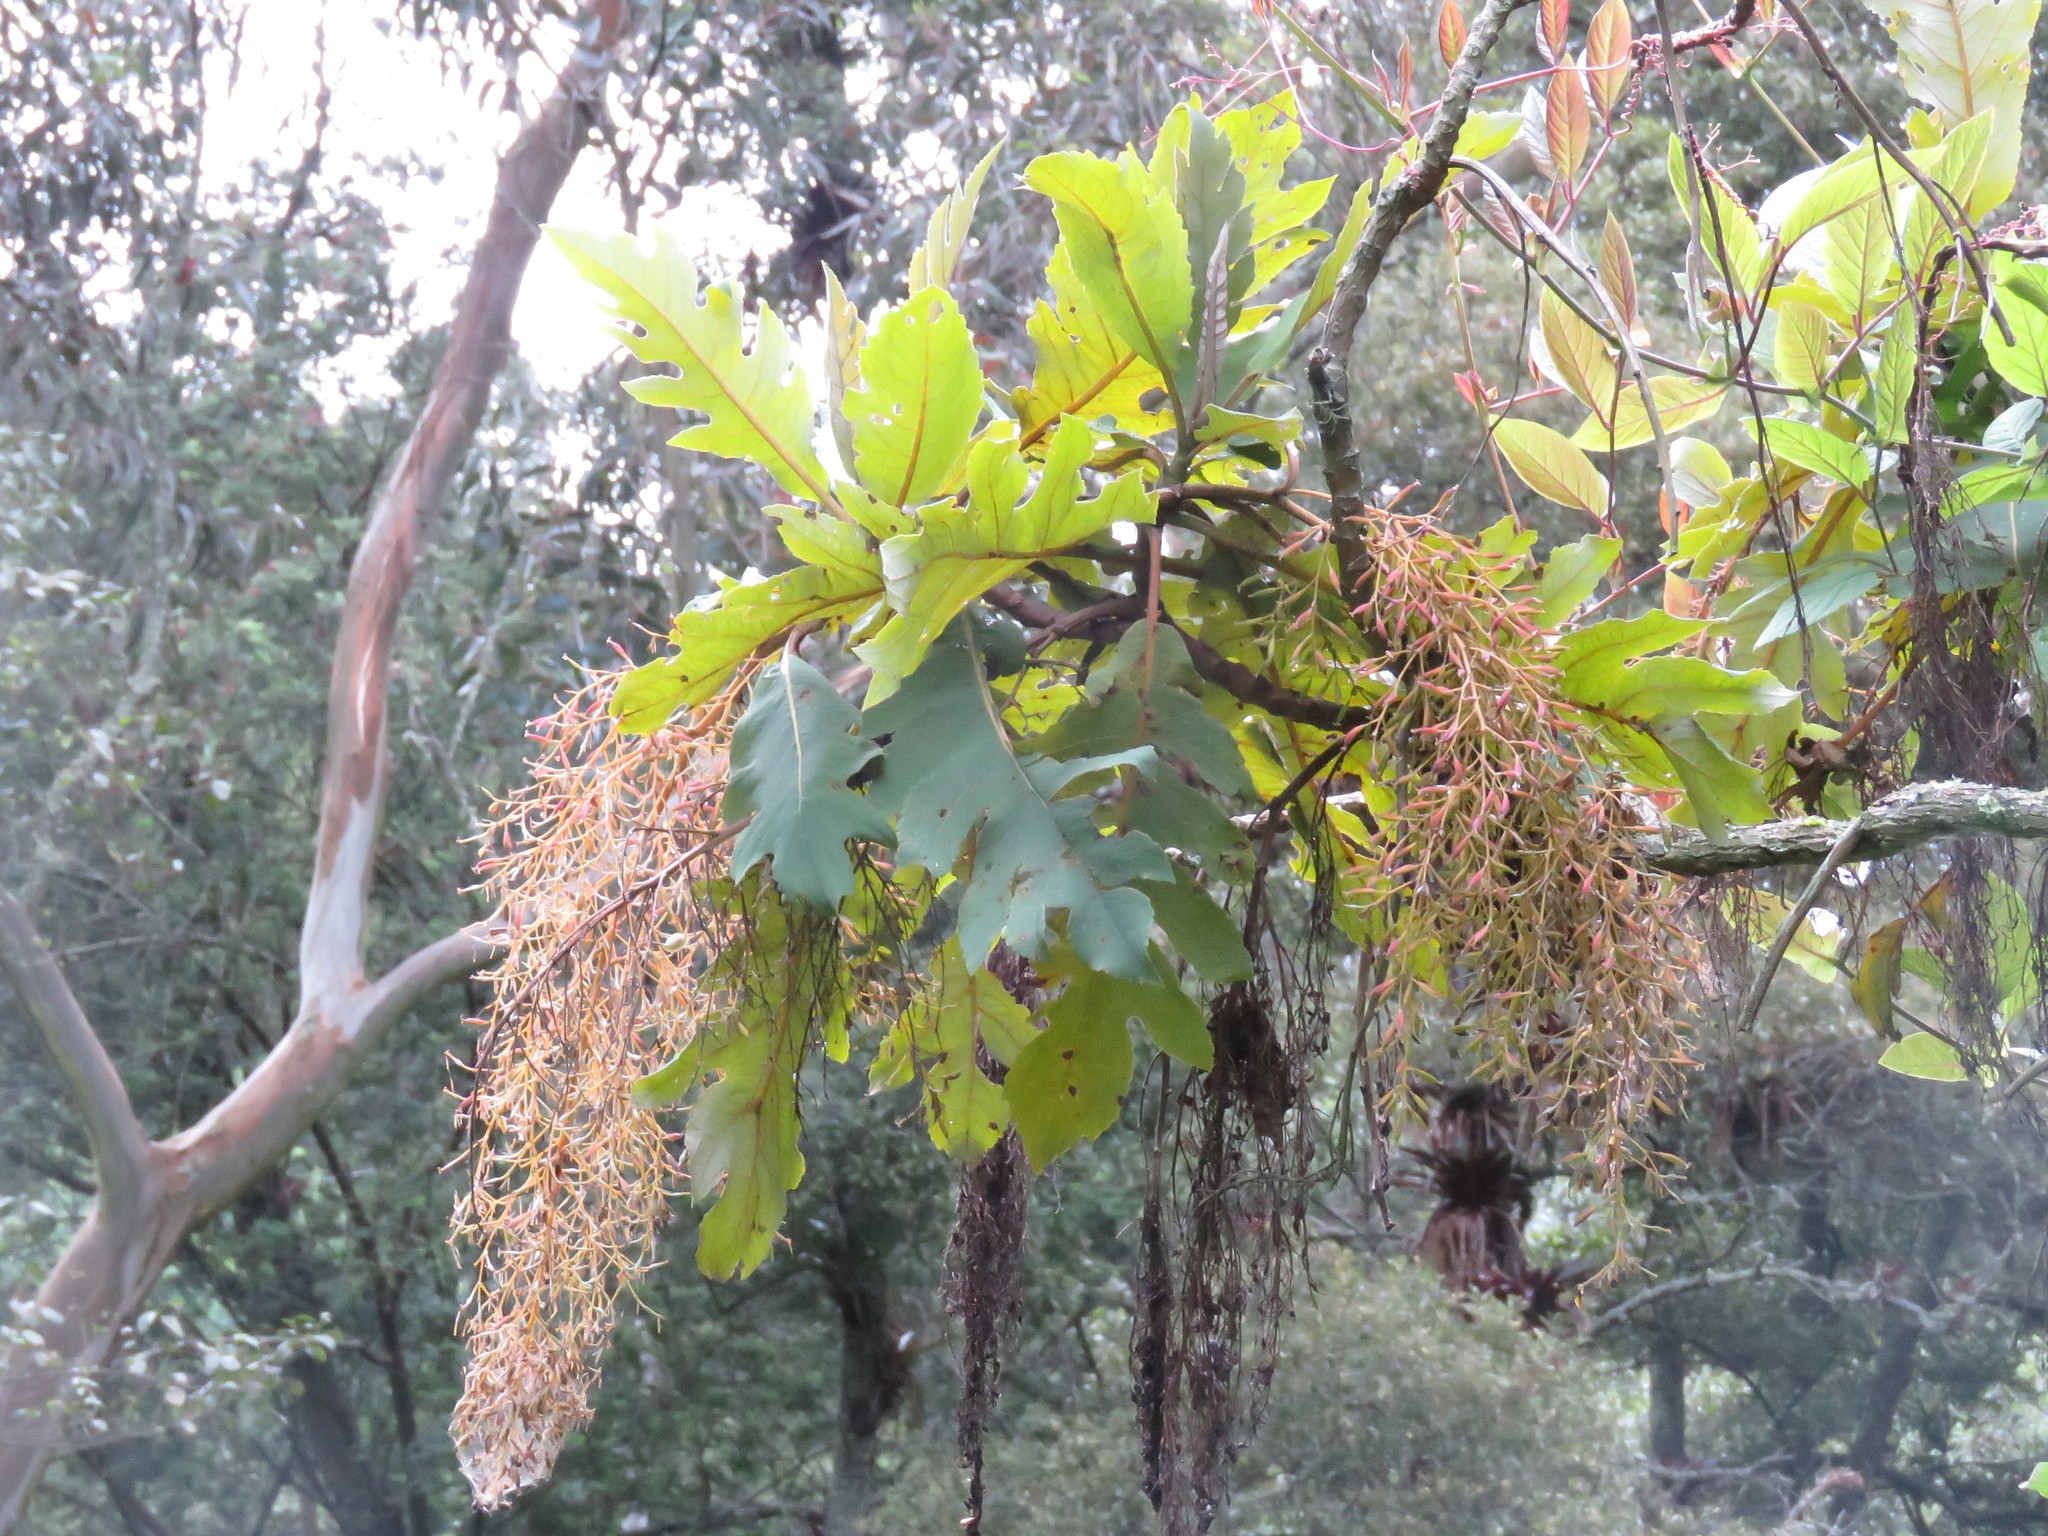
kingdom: Plantae
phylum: Tracheophyta
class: Magnoliopsida
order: Ranunculales
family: Papaveraceae
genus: Bocconia
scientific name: Bocconia frutescens
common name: Tree poppy
